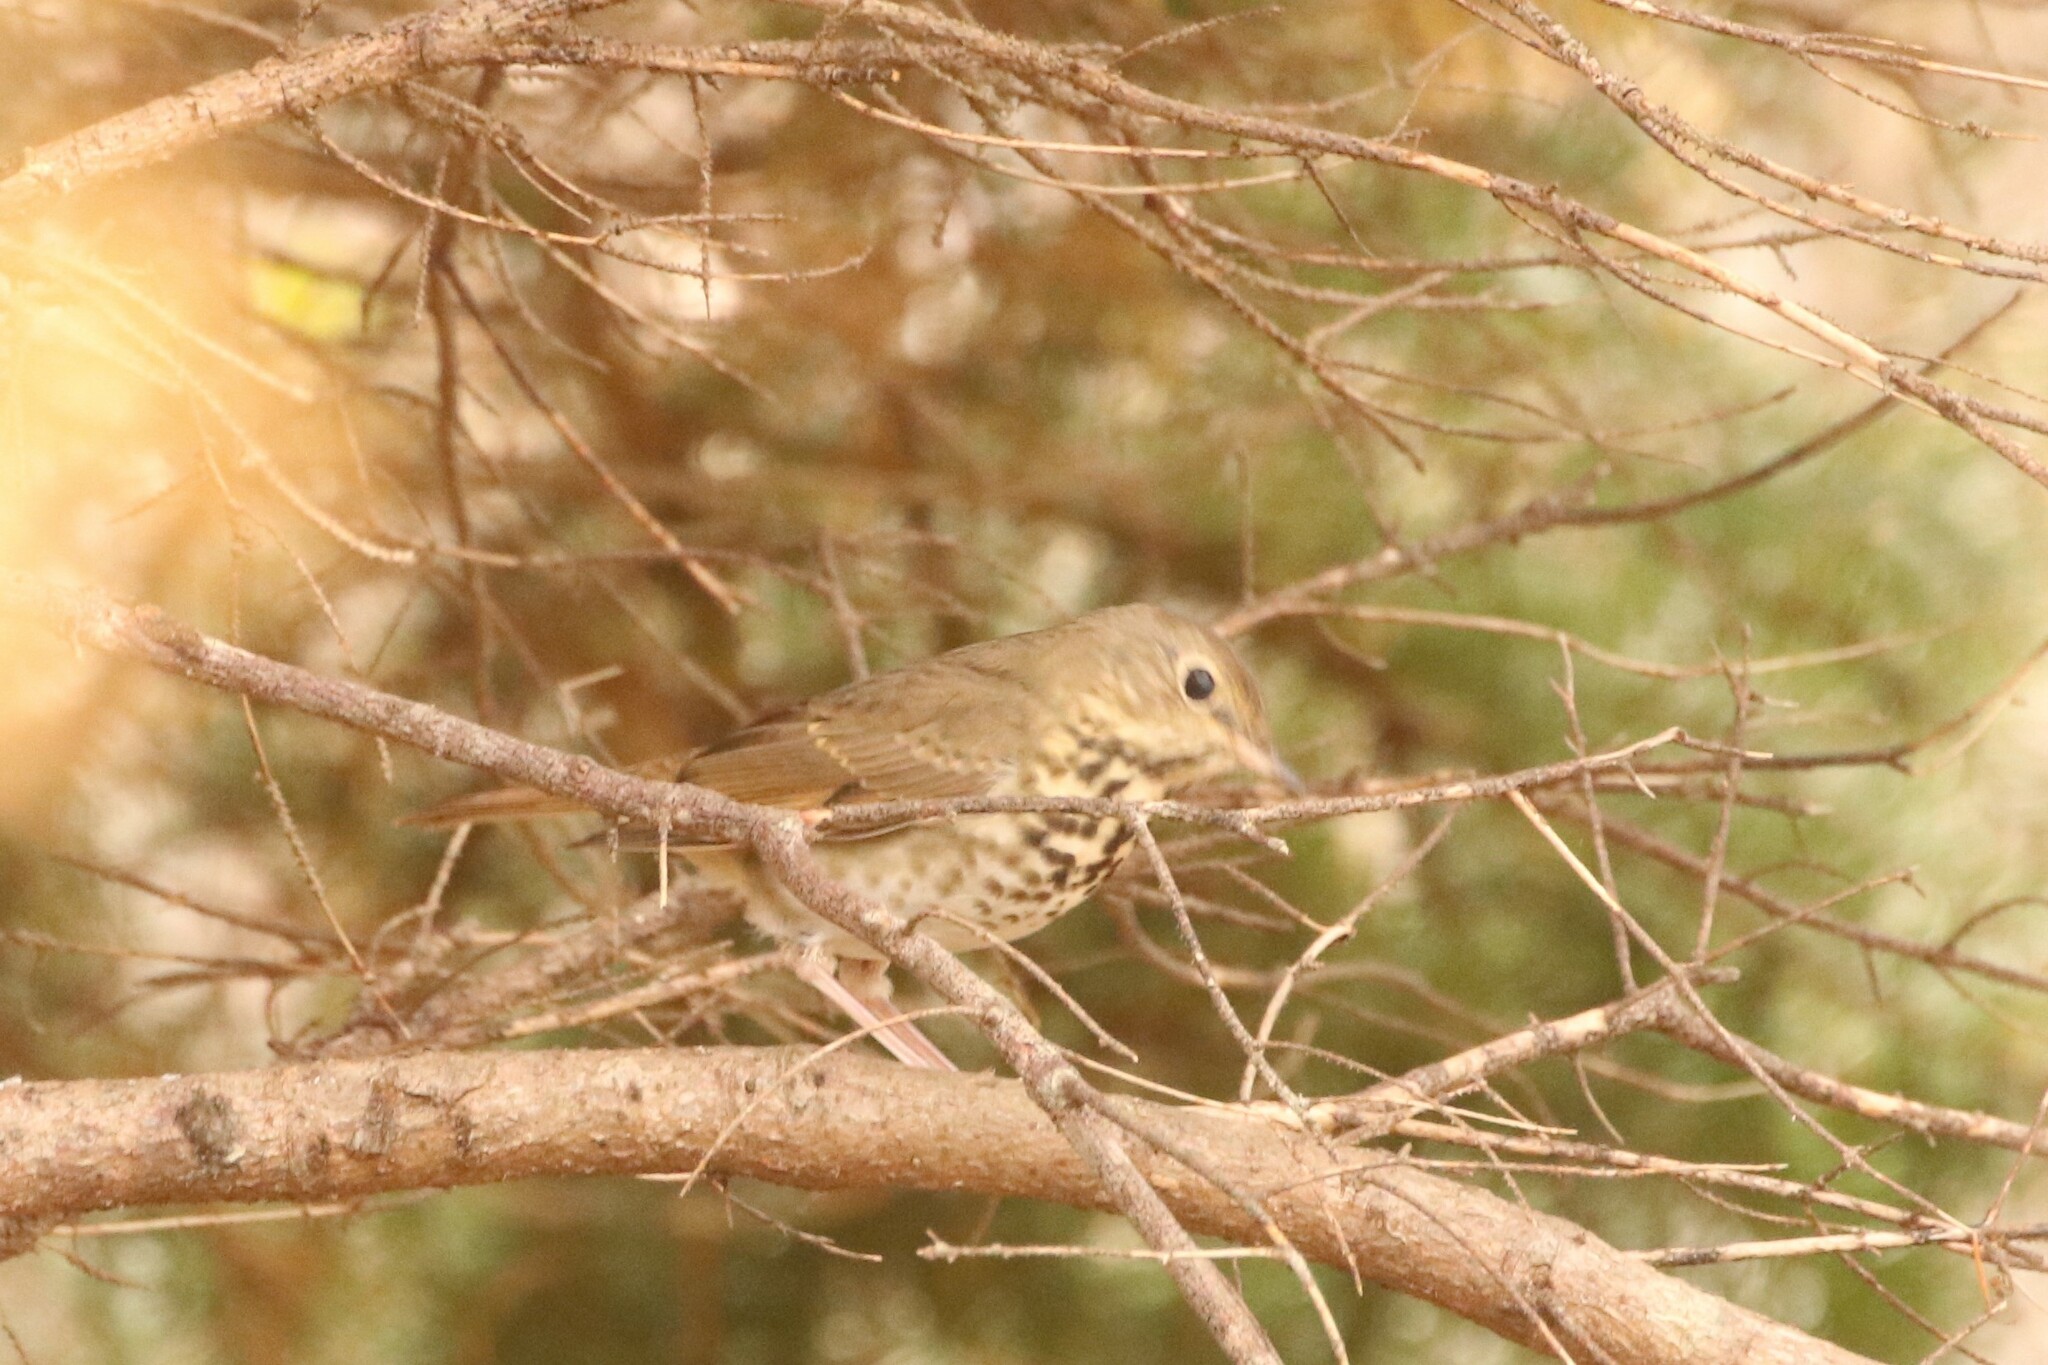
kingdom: Animalia
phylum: Chordata
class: Aves
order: Passeriformes
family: Turdidae
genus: Catharus
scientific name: Catharus guttatus
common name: Hermit thrush
